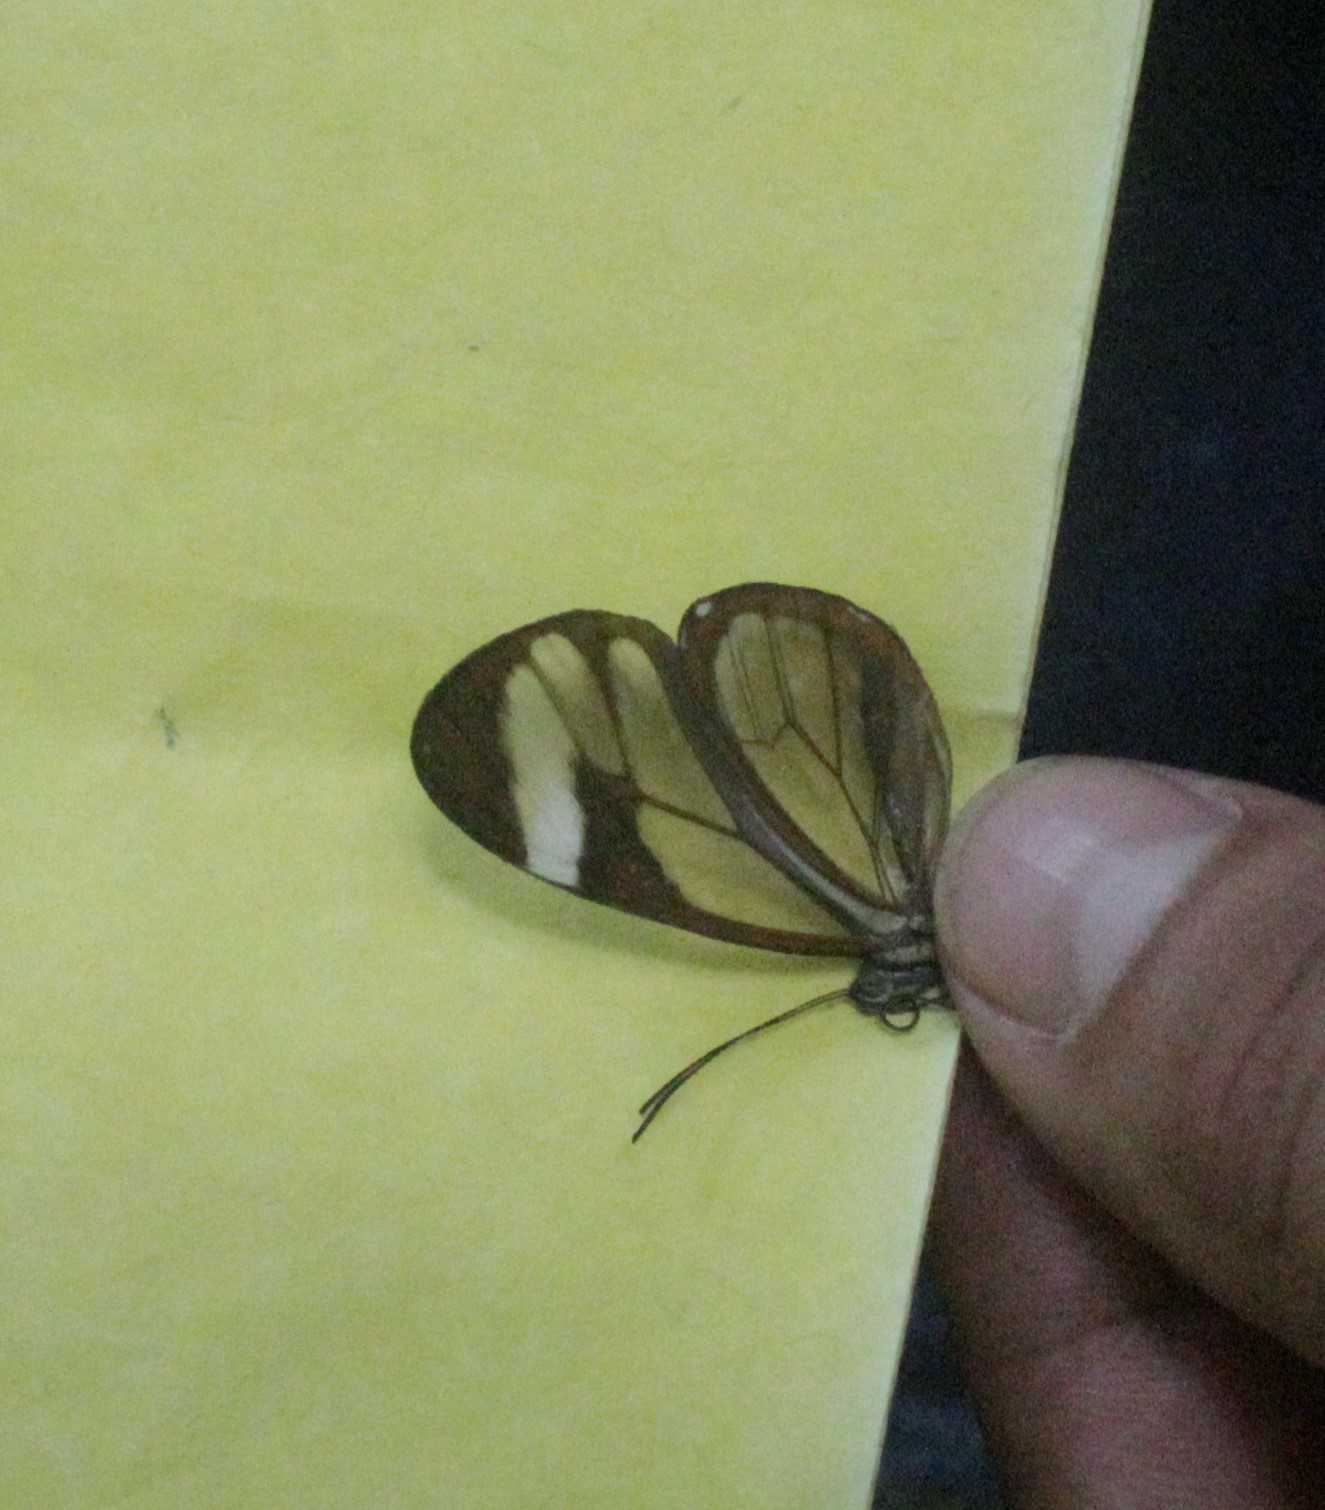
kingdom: Animalia
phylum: Arthropoda
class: Insecta
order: Lepidoptera
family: Nymphalidae
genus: Ithomia
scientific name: Ithomia patilla
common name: Patilla clearwing
